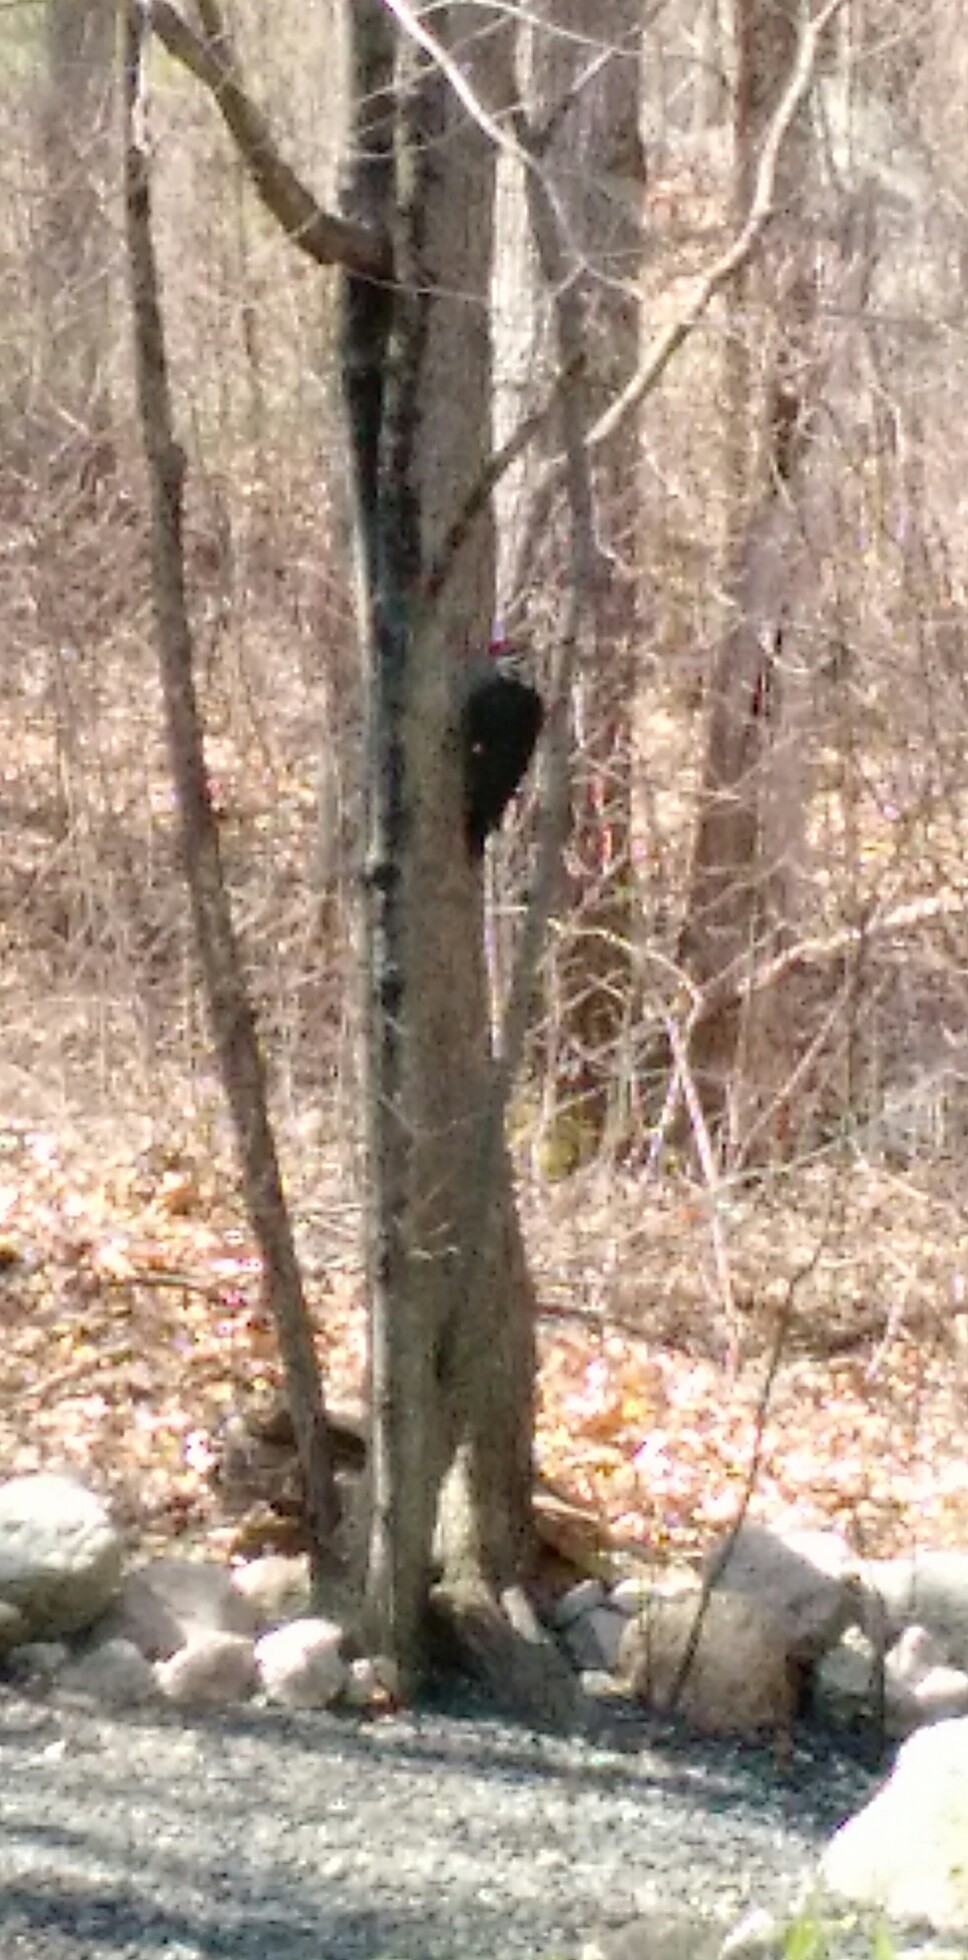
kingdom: Animalia
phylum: Chordata
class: Aves
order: Piciformes
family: Picidae
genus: Dryocopus
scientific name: Dryocopus pileatus
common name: Pileated woodpecker
